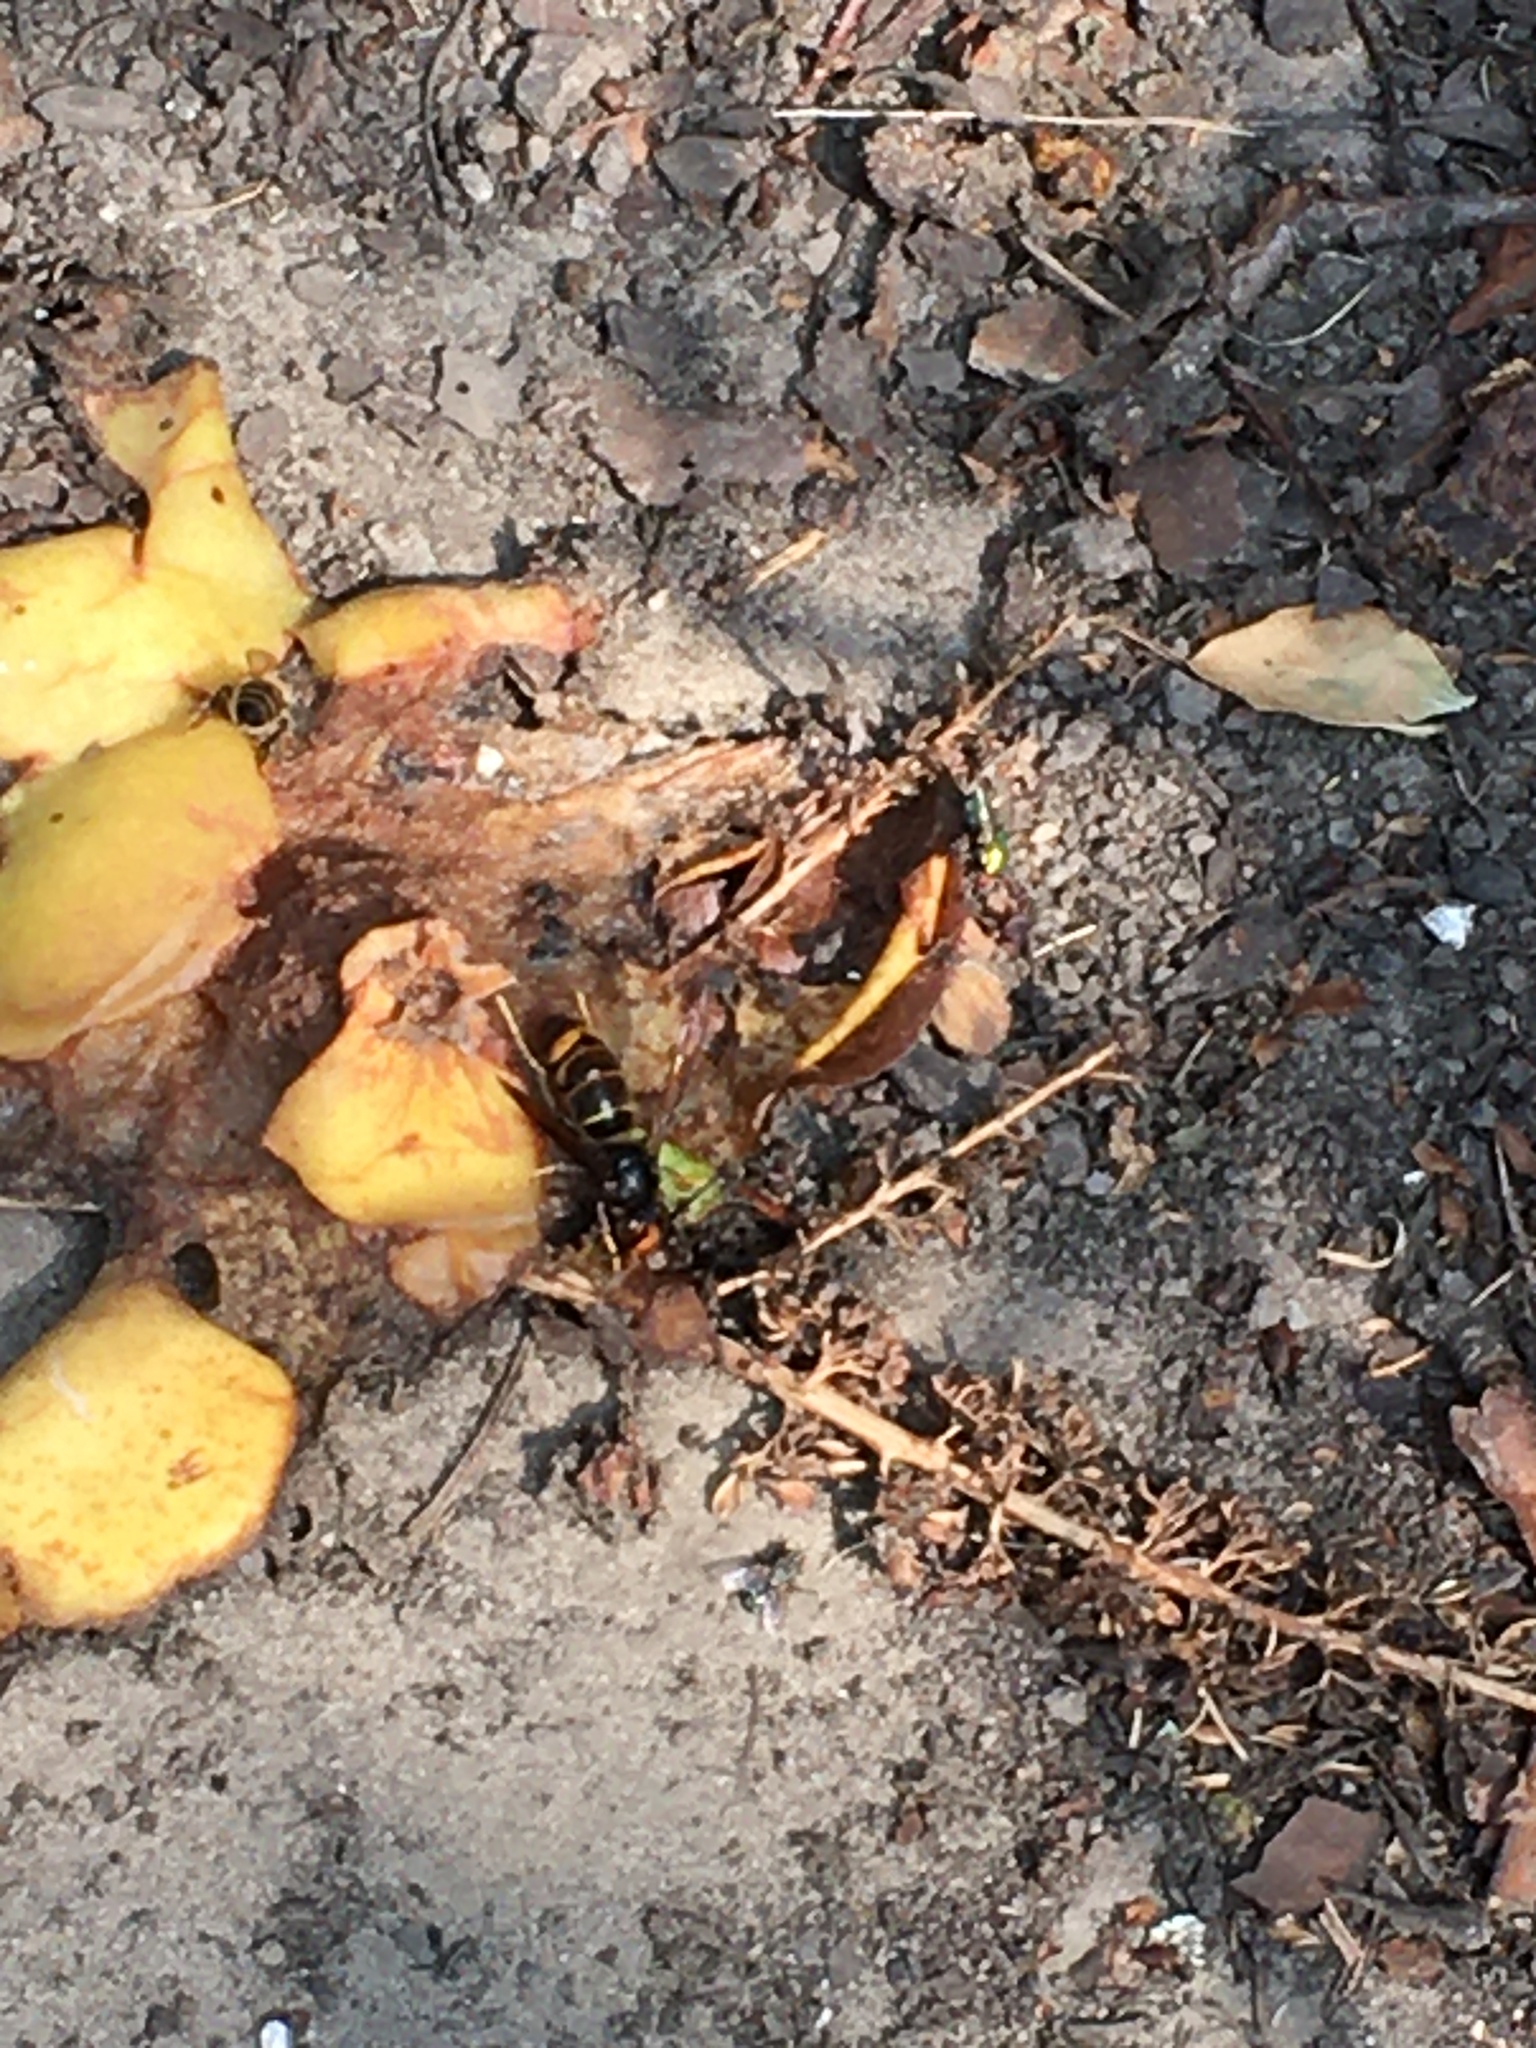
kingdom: Animalia
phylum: Arthropoda
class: Insecta
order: Hymenoptera
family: Vespidae
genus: Vespa
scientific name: Vespa velutina
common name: Asian hornet
